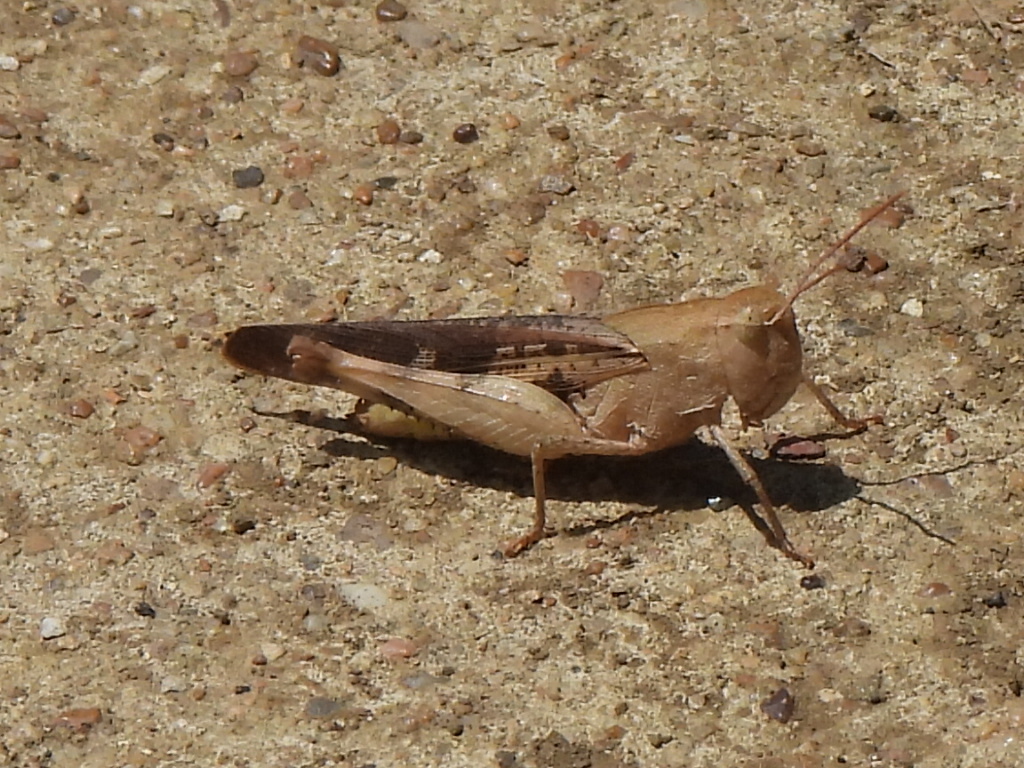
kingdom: Animalia
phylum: Arthropoda
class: Insecta
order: Orthoptera
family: Acrididae
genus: Chortophaga
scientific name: Chortophaga viridifasciata
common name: Green-striped grasshopper
